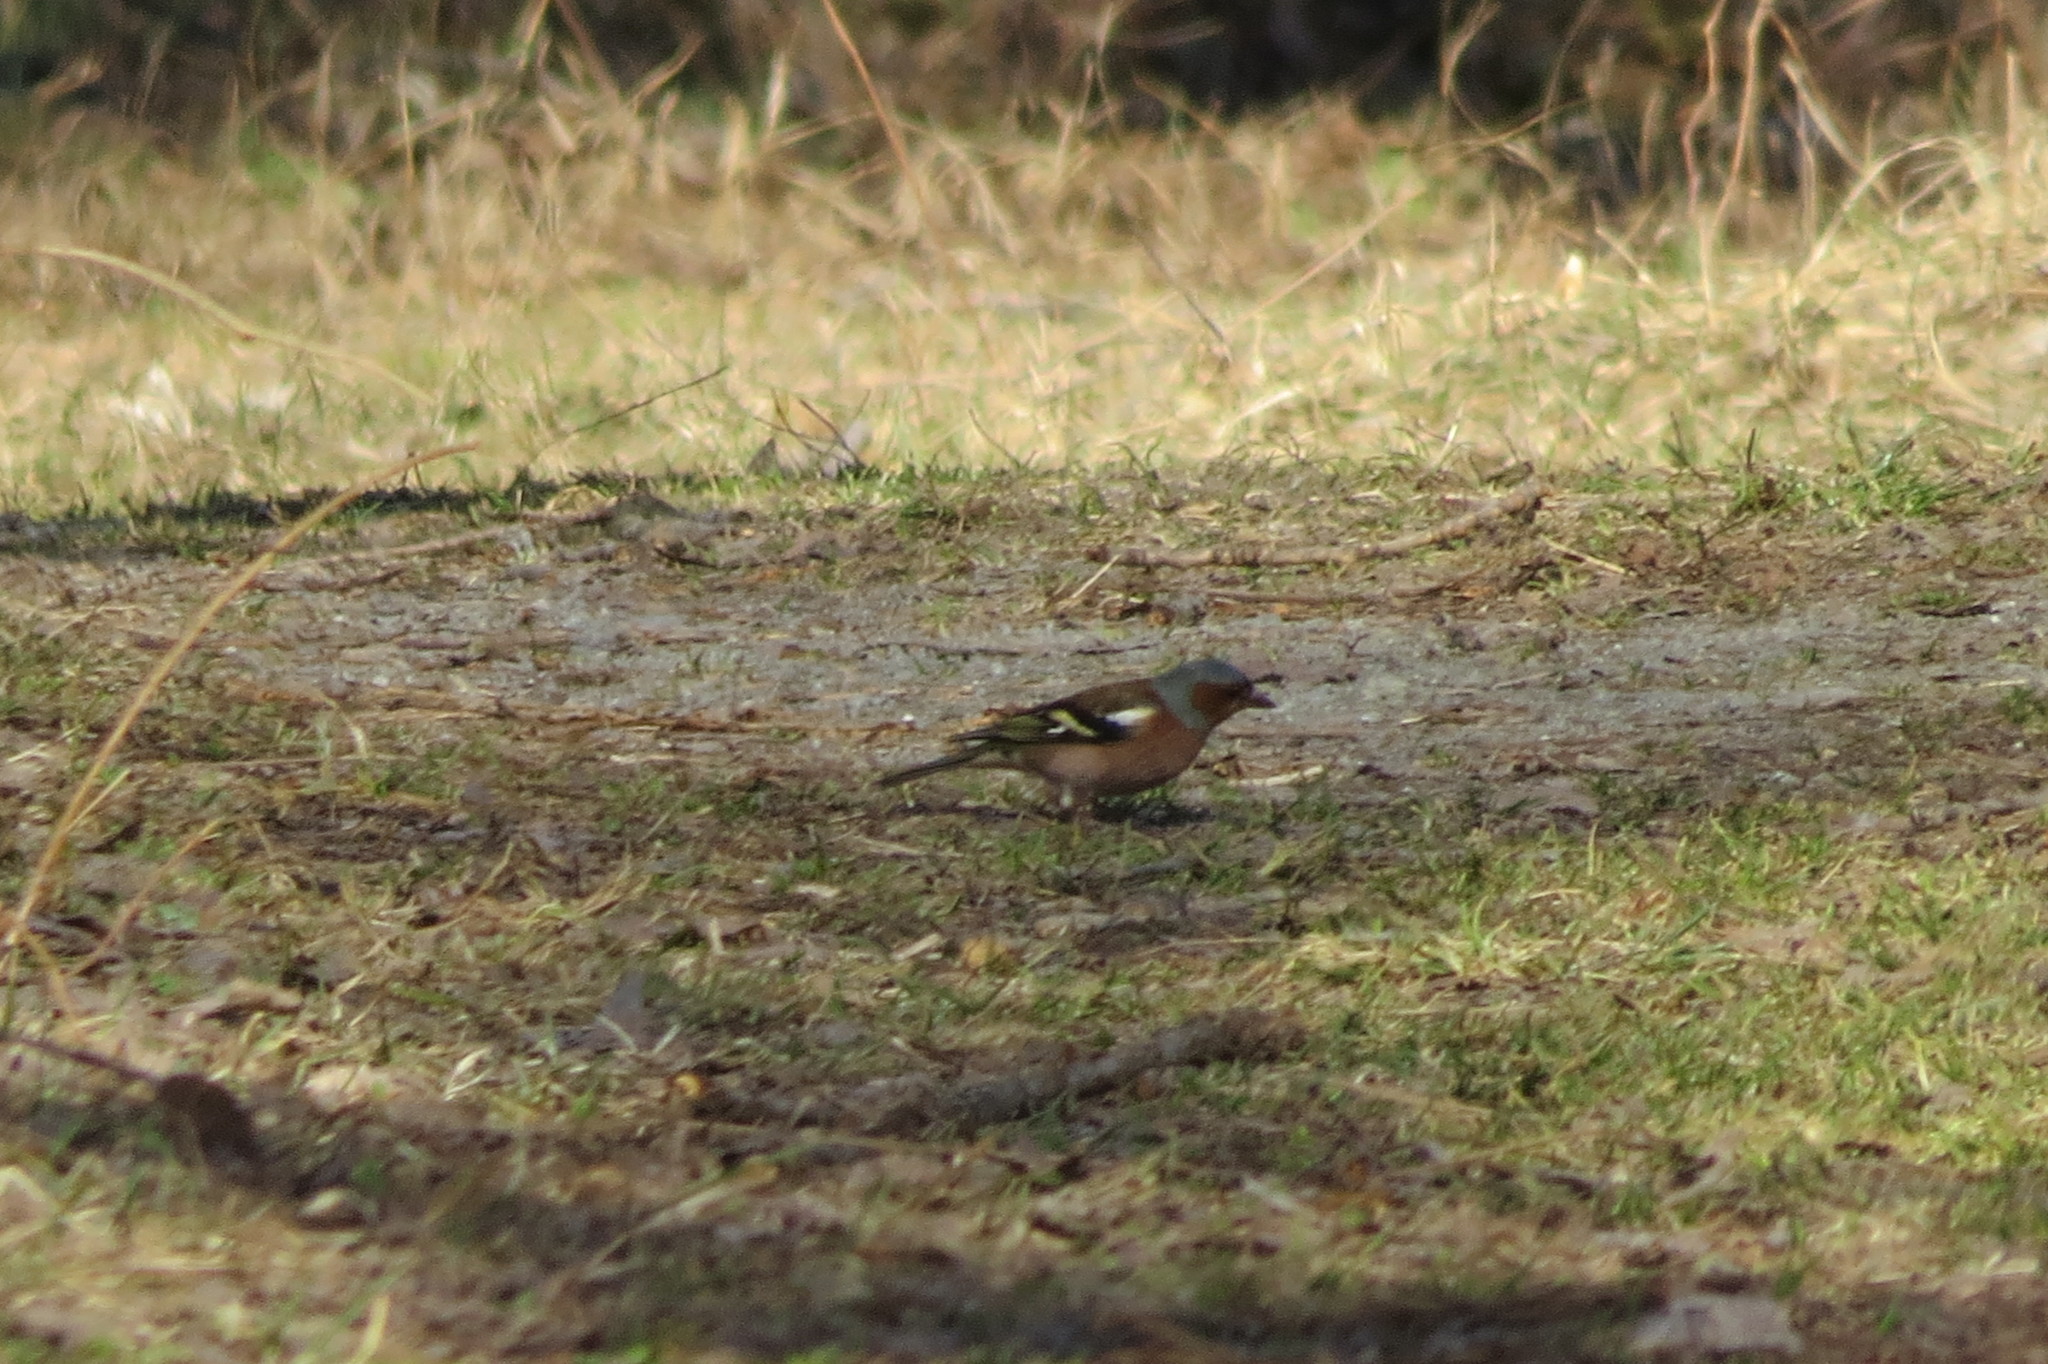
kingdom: Animalia
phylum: Chordata
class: Aves
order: Passeriformes
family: Fringillidae
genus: Fringilla
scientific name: Fringilla coelebs
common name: Common chaffinch
